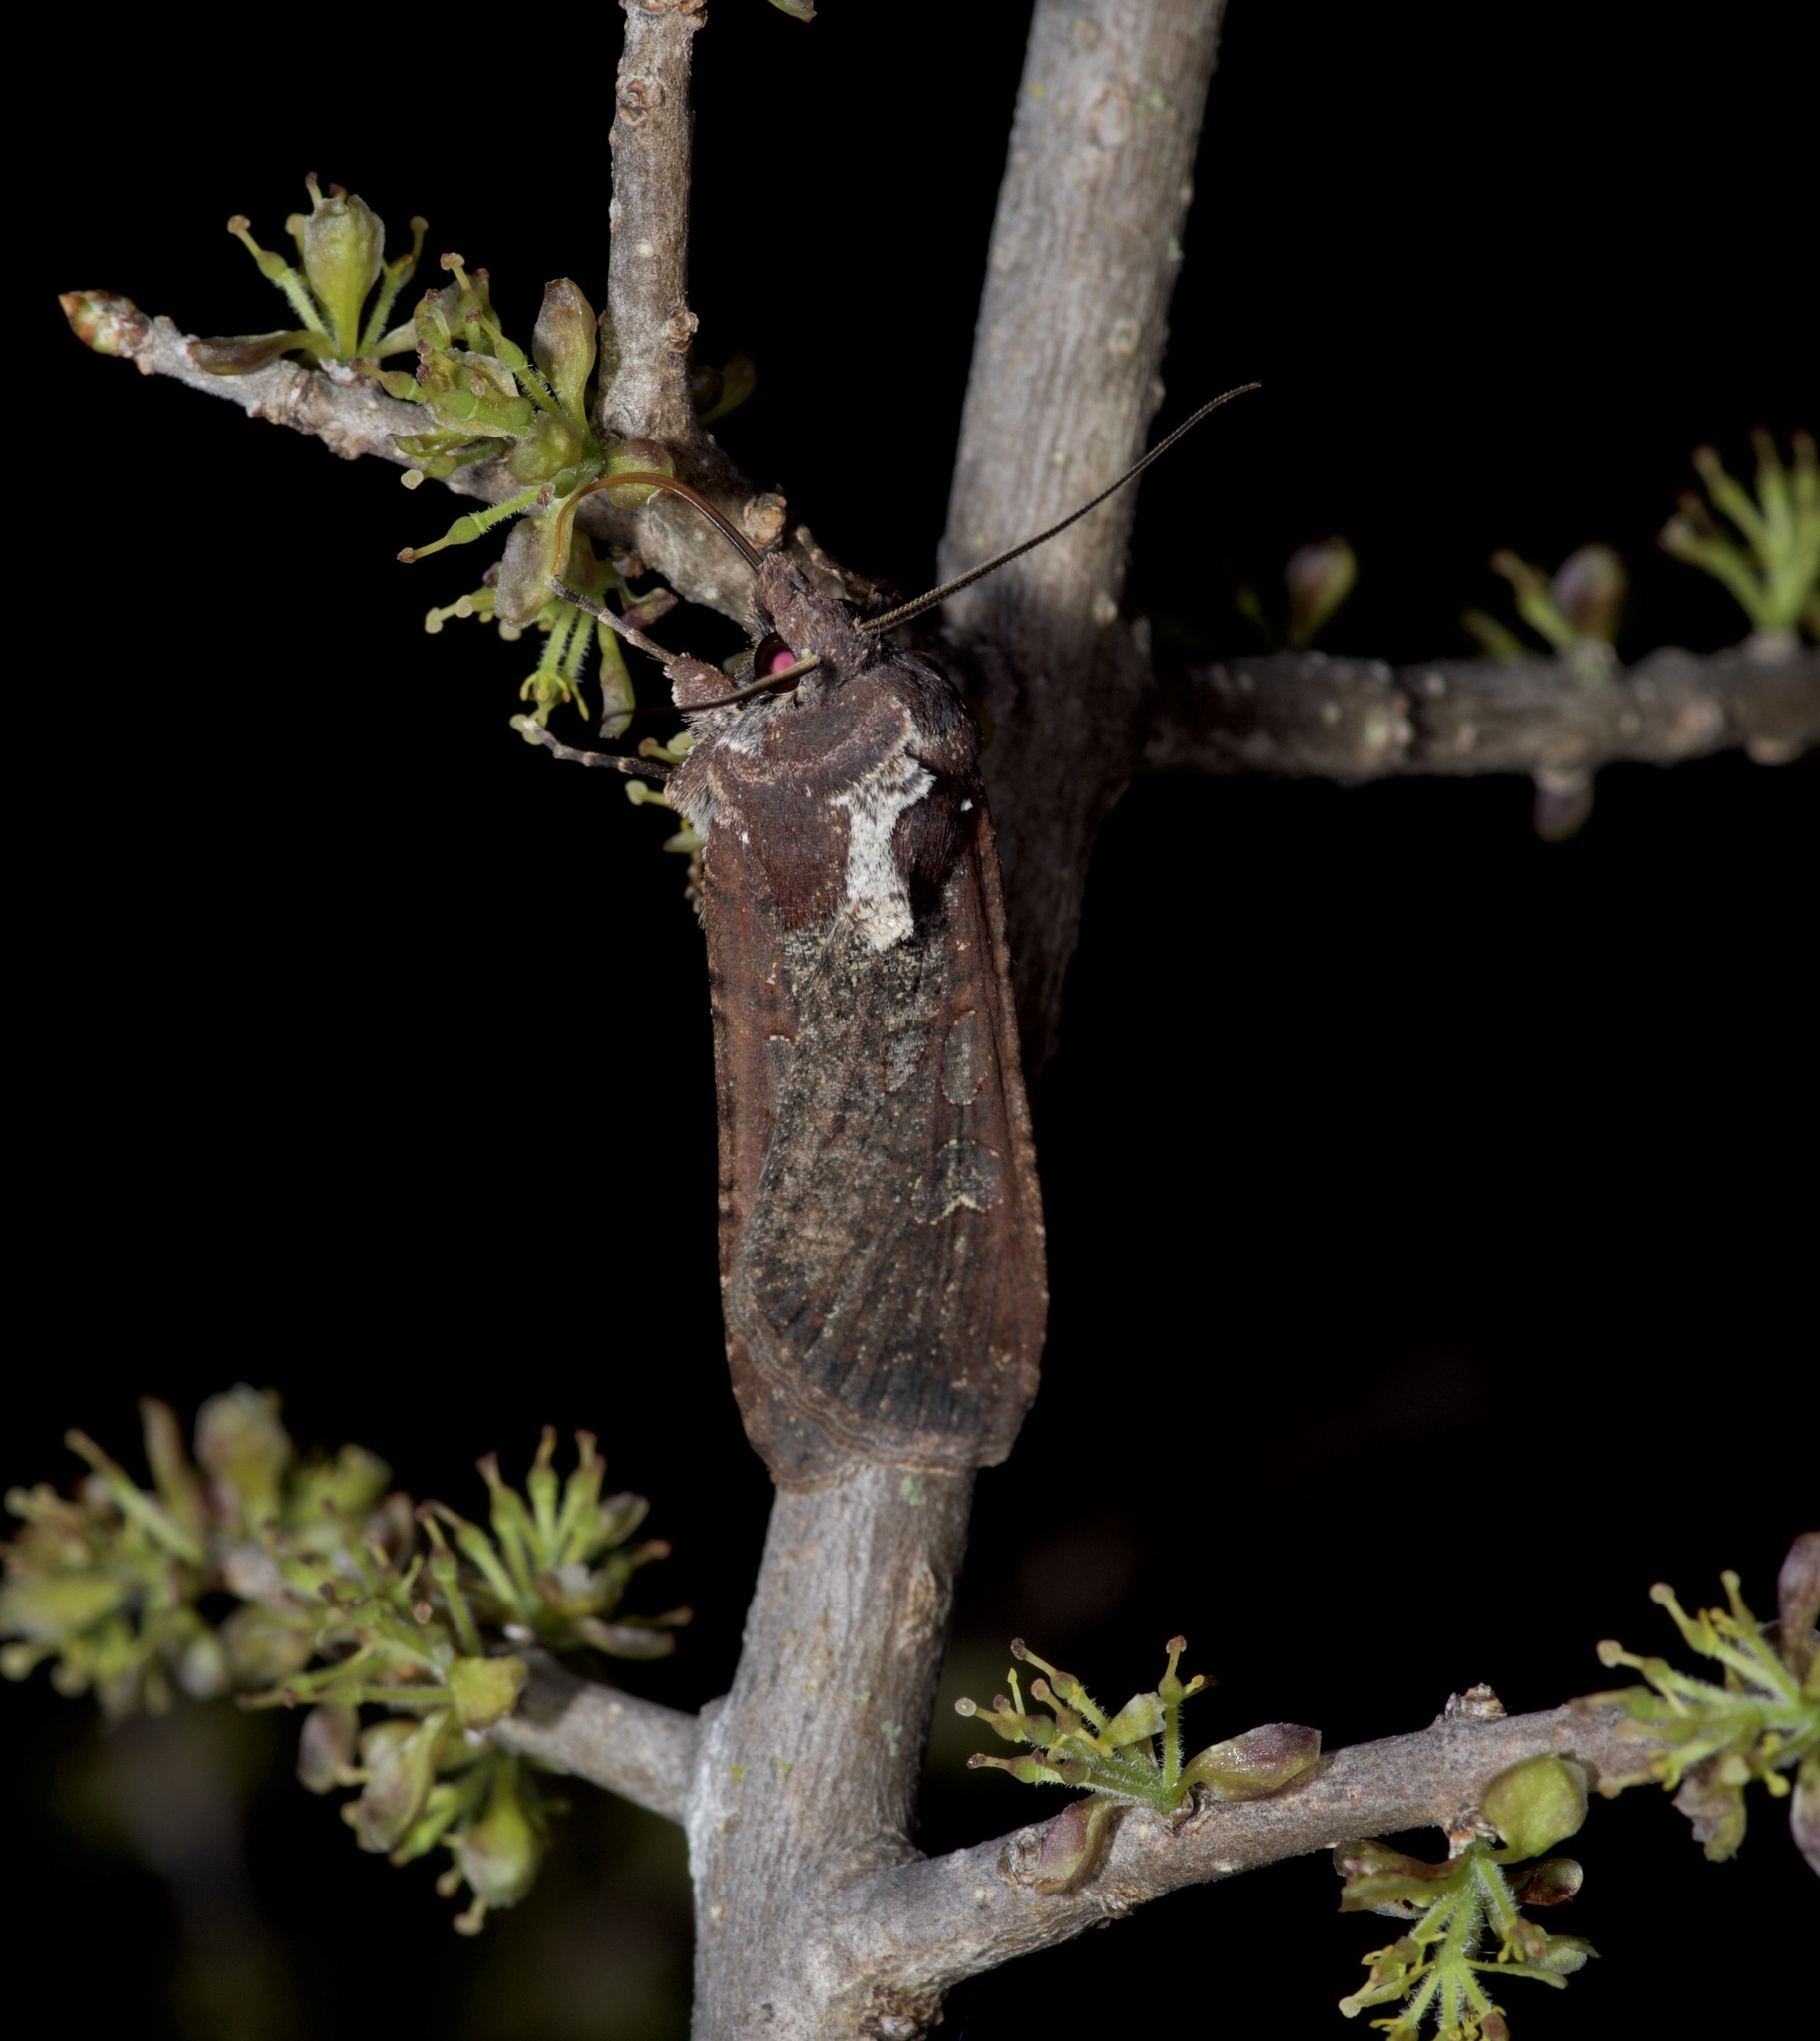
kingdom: Animalia
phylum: Arthropoda
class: Insecta
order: Lepidoptera
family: Noctuidae
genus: Peridroma
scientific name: Peridroma saucia
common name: Pearly underwing
